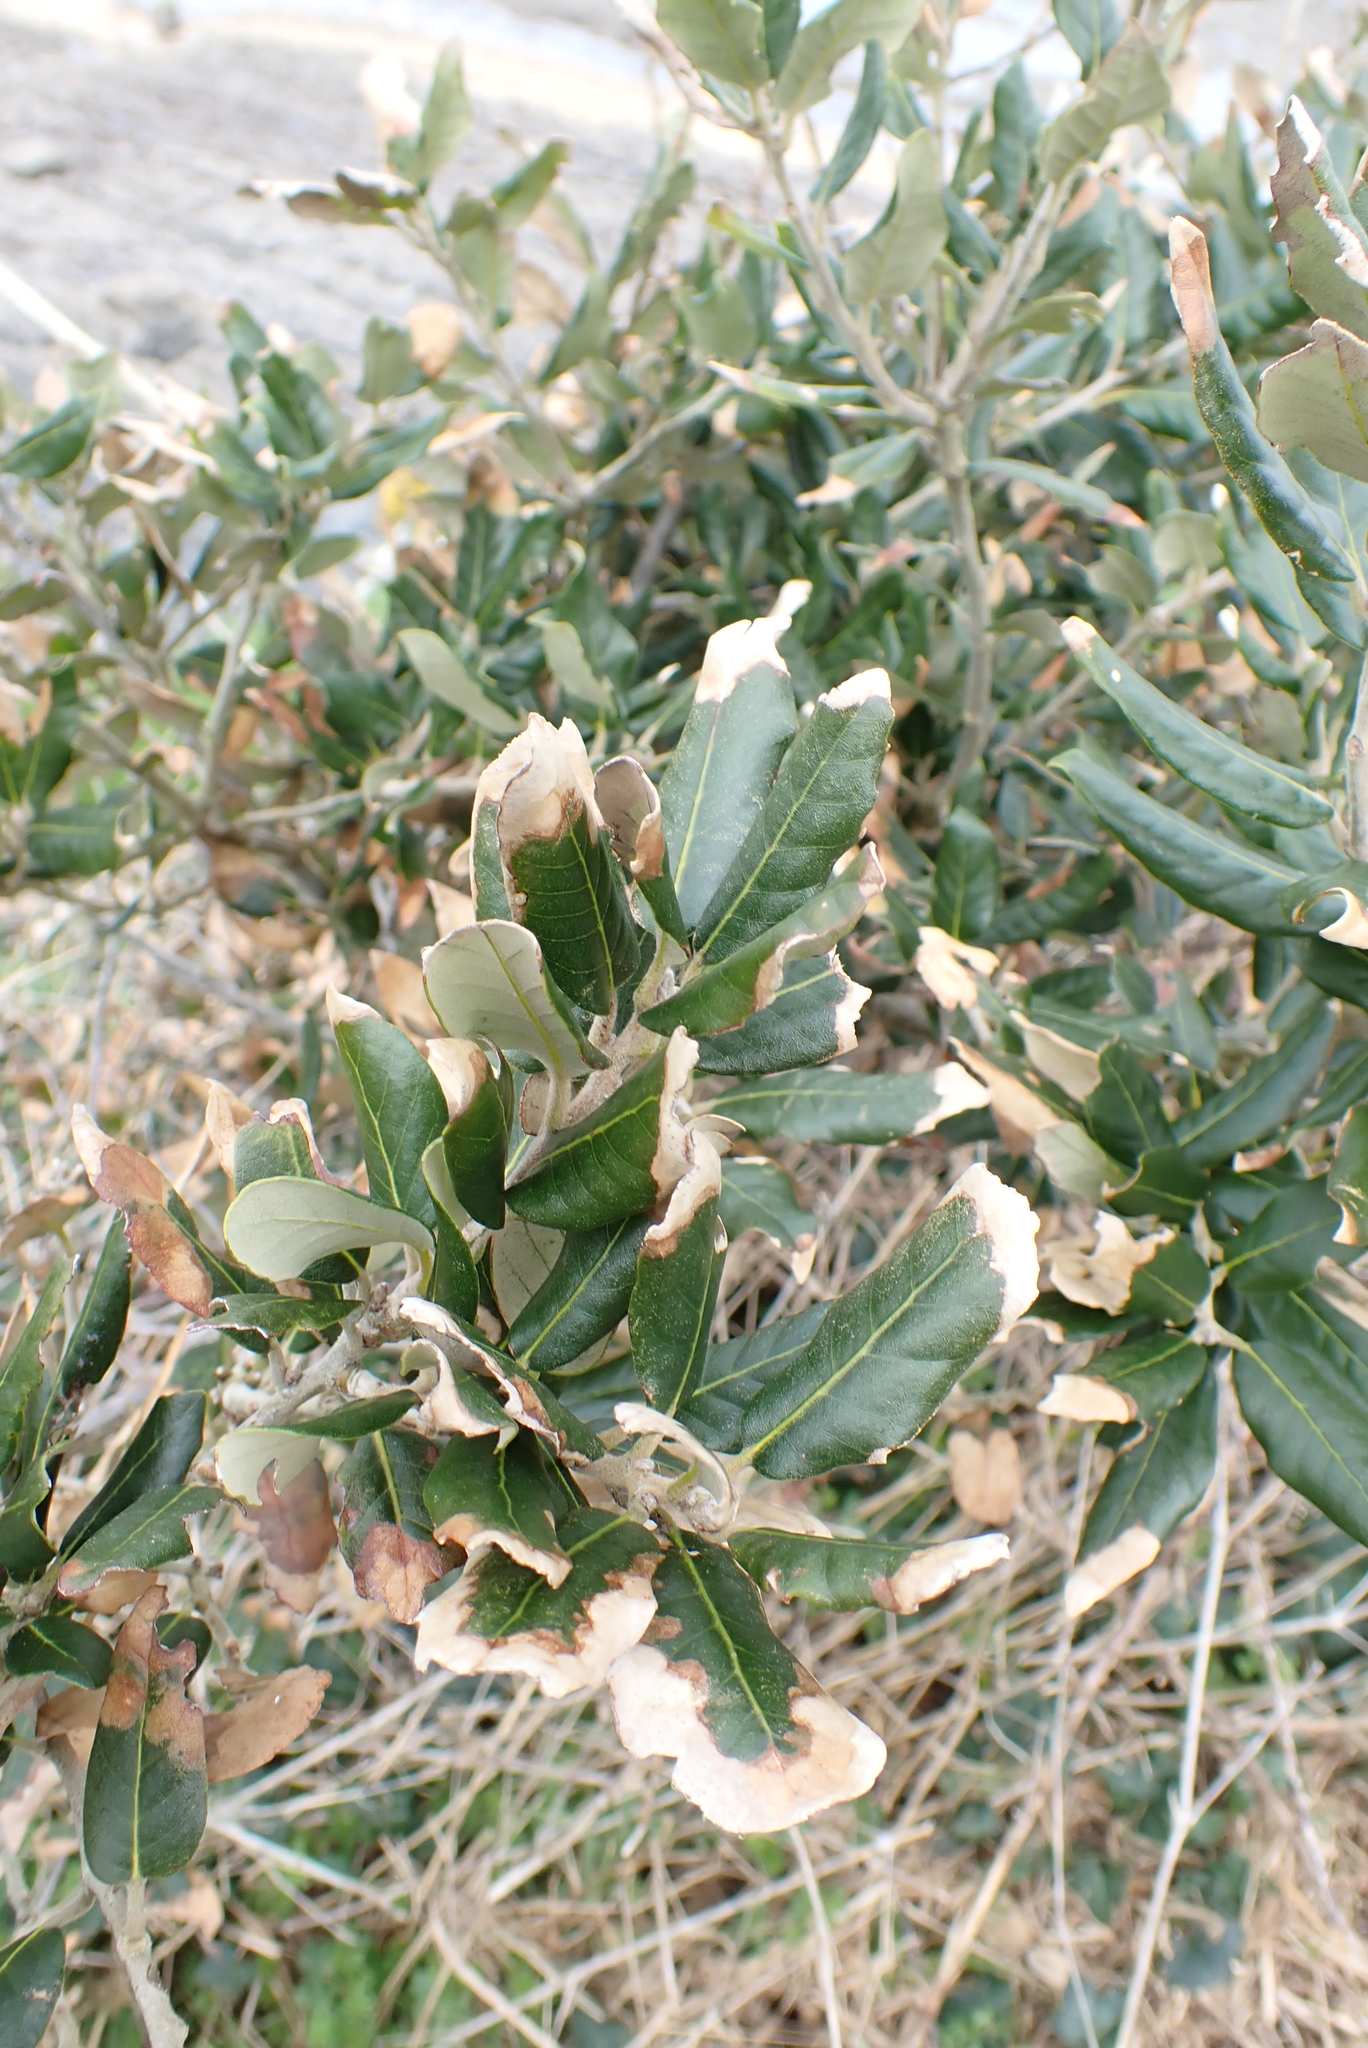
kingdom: Plantae
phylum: Tracheophyta
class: Magnoliopsida
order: Fagales
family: Fagaceae
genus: Quercus
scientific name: Quercus ilex
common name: Evergreen oak
